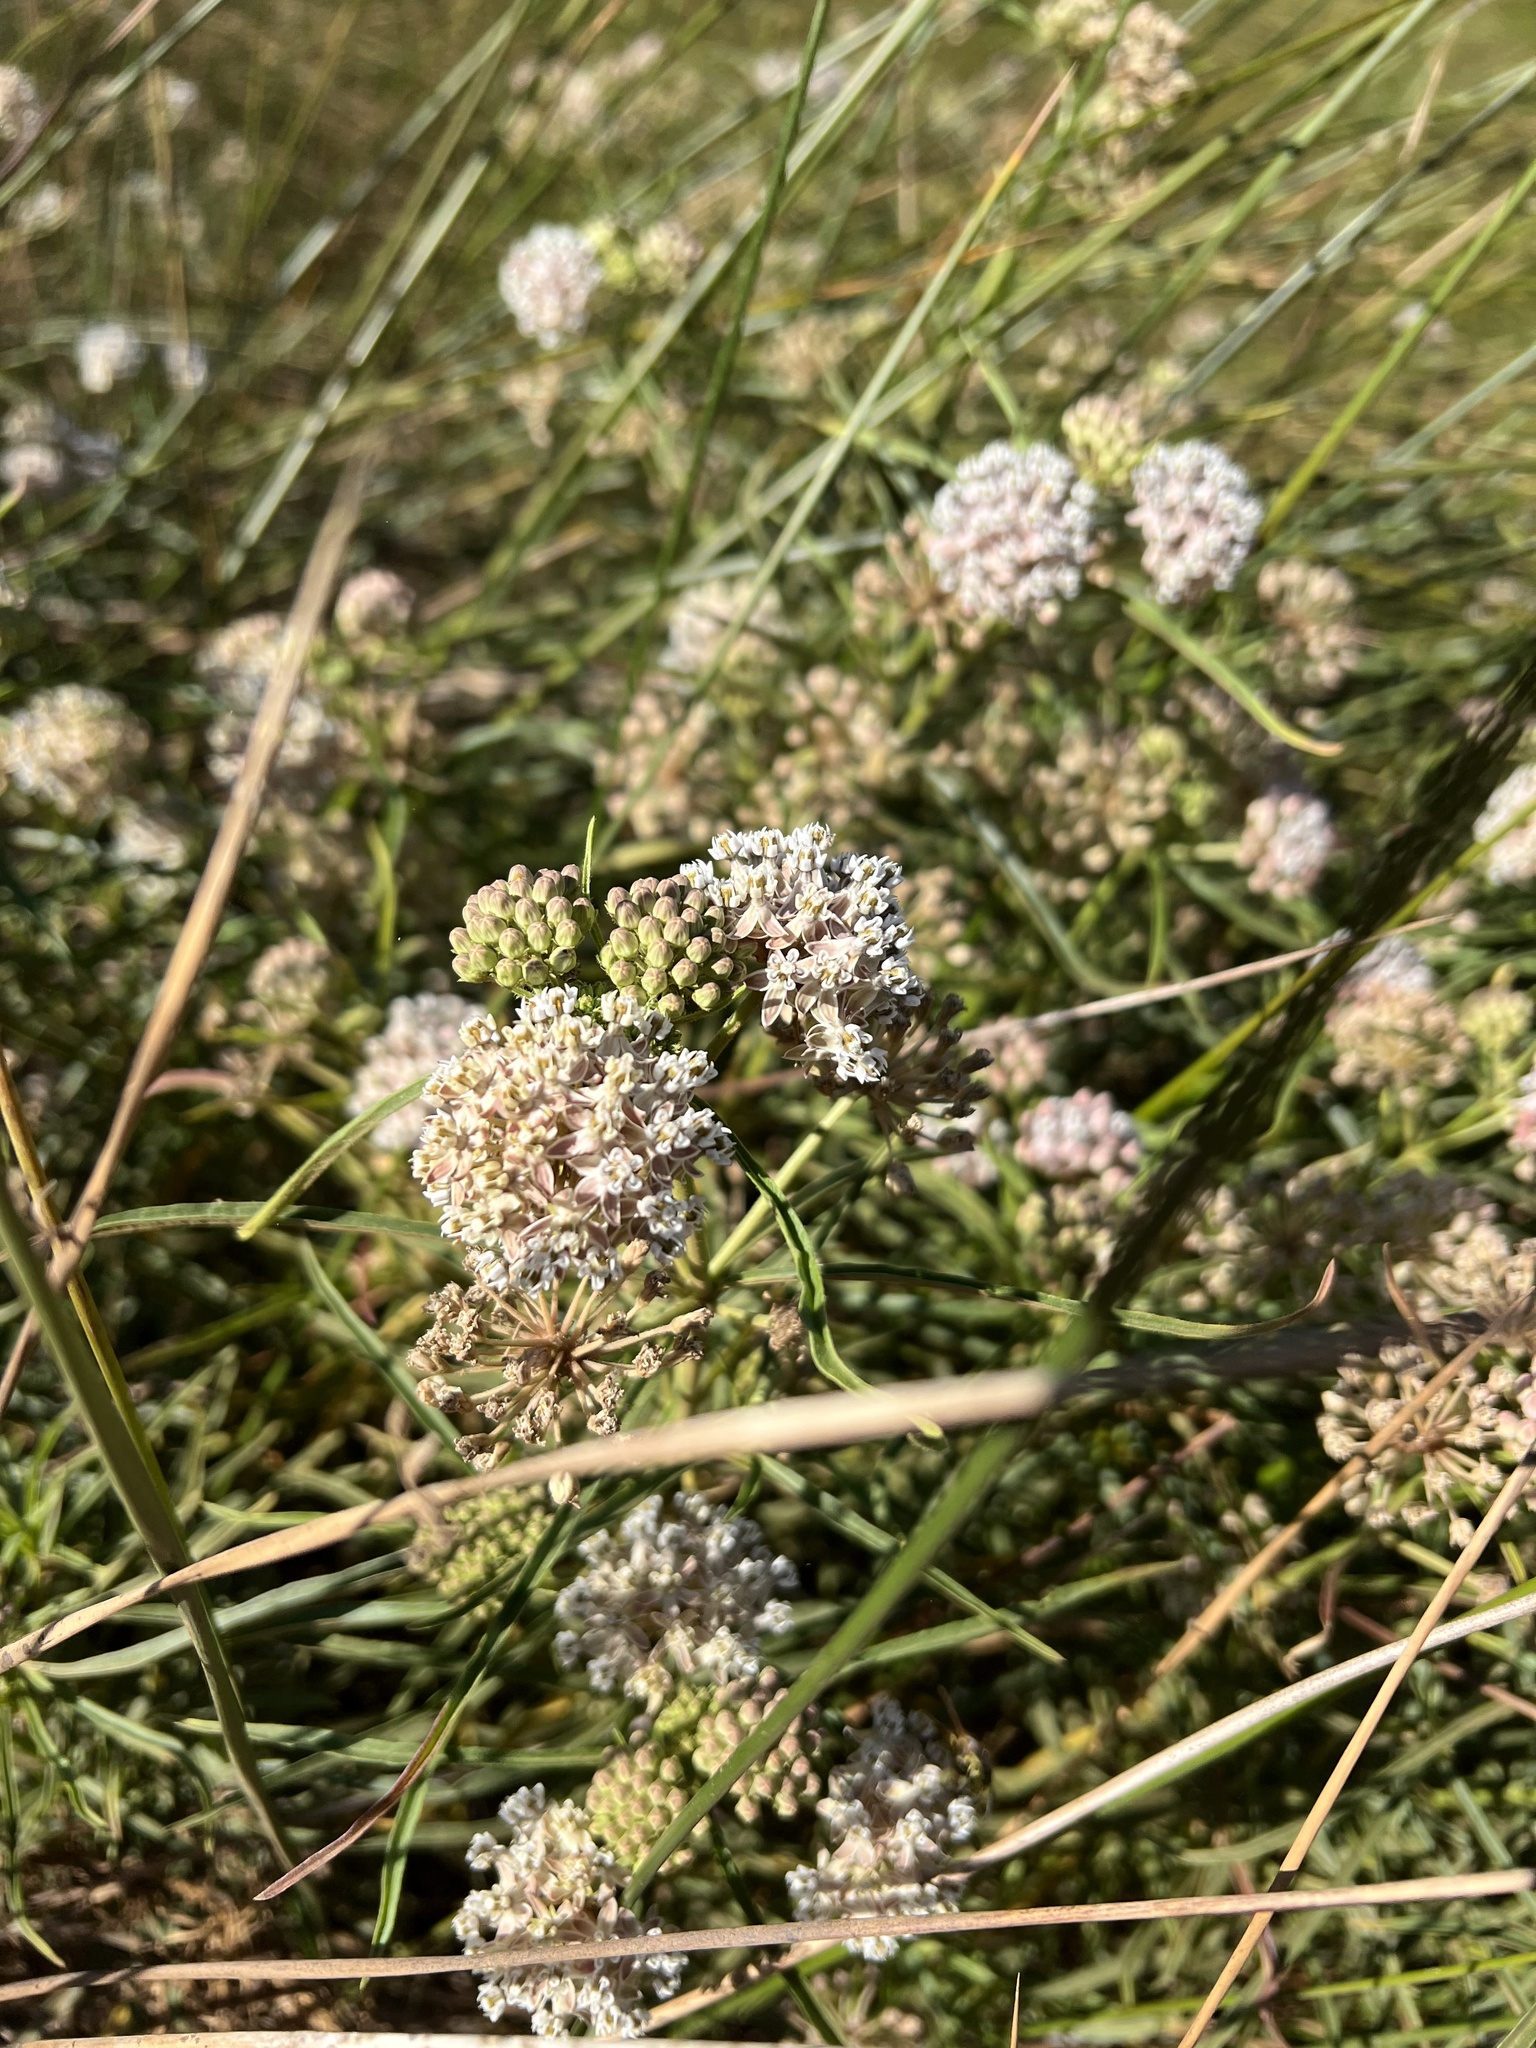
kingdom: Plantae
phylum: Tracheophyta
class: Magnoliopsida
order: Gentianales
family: Apocynaceae
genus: Asclepias
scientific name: Asclepias fascicularis
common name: Mexican milkweed
